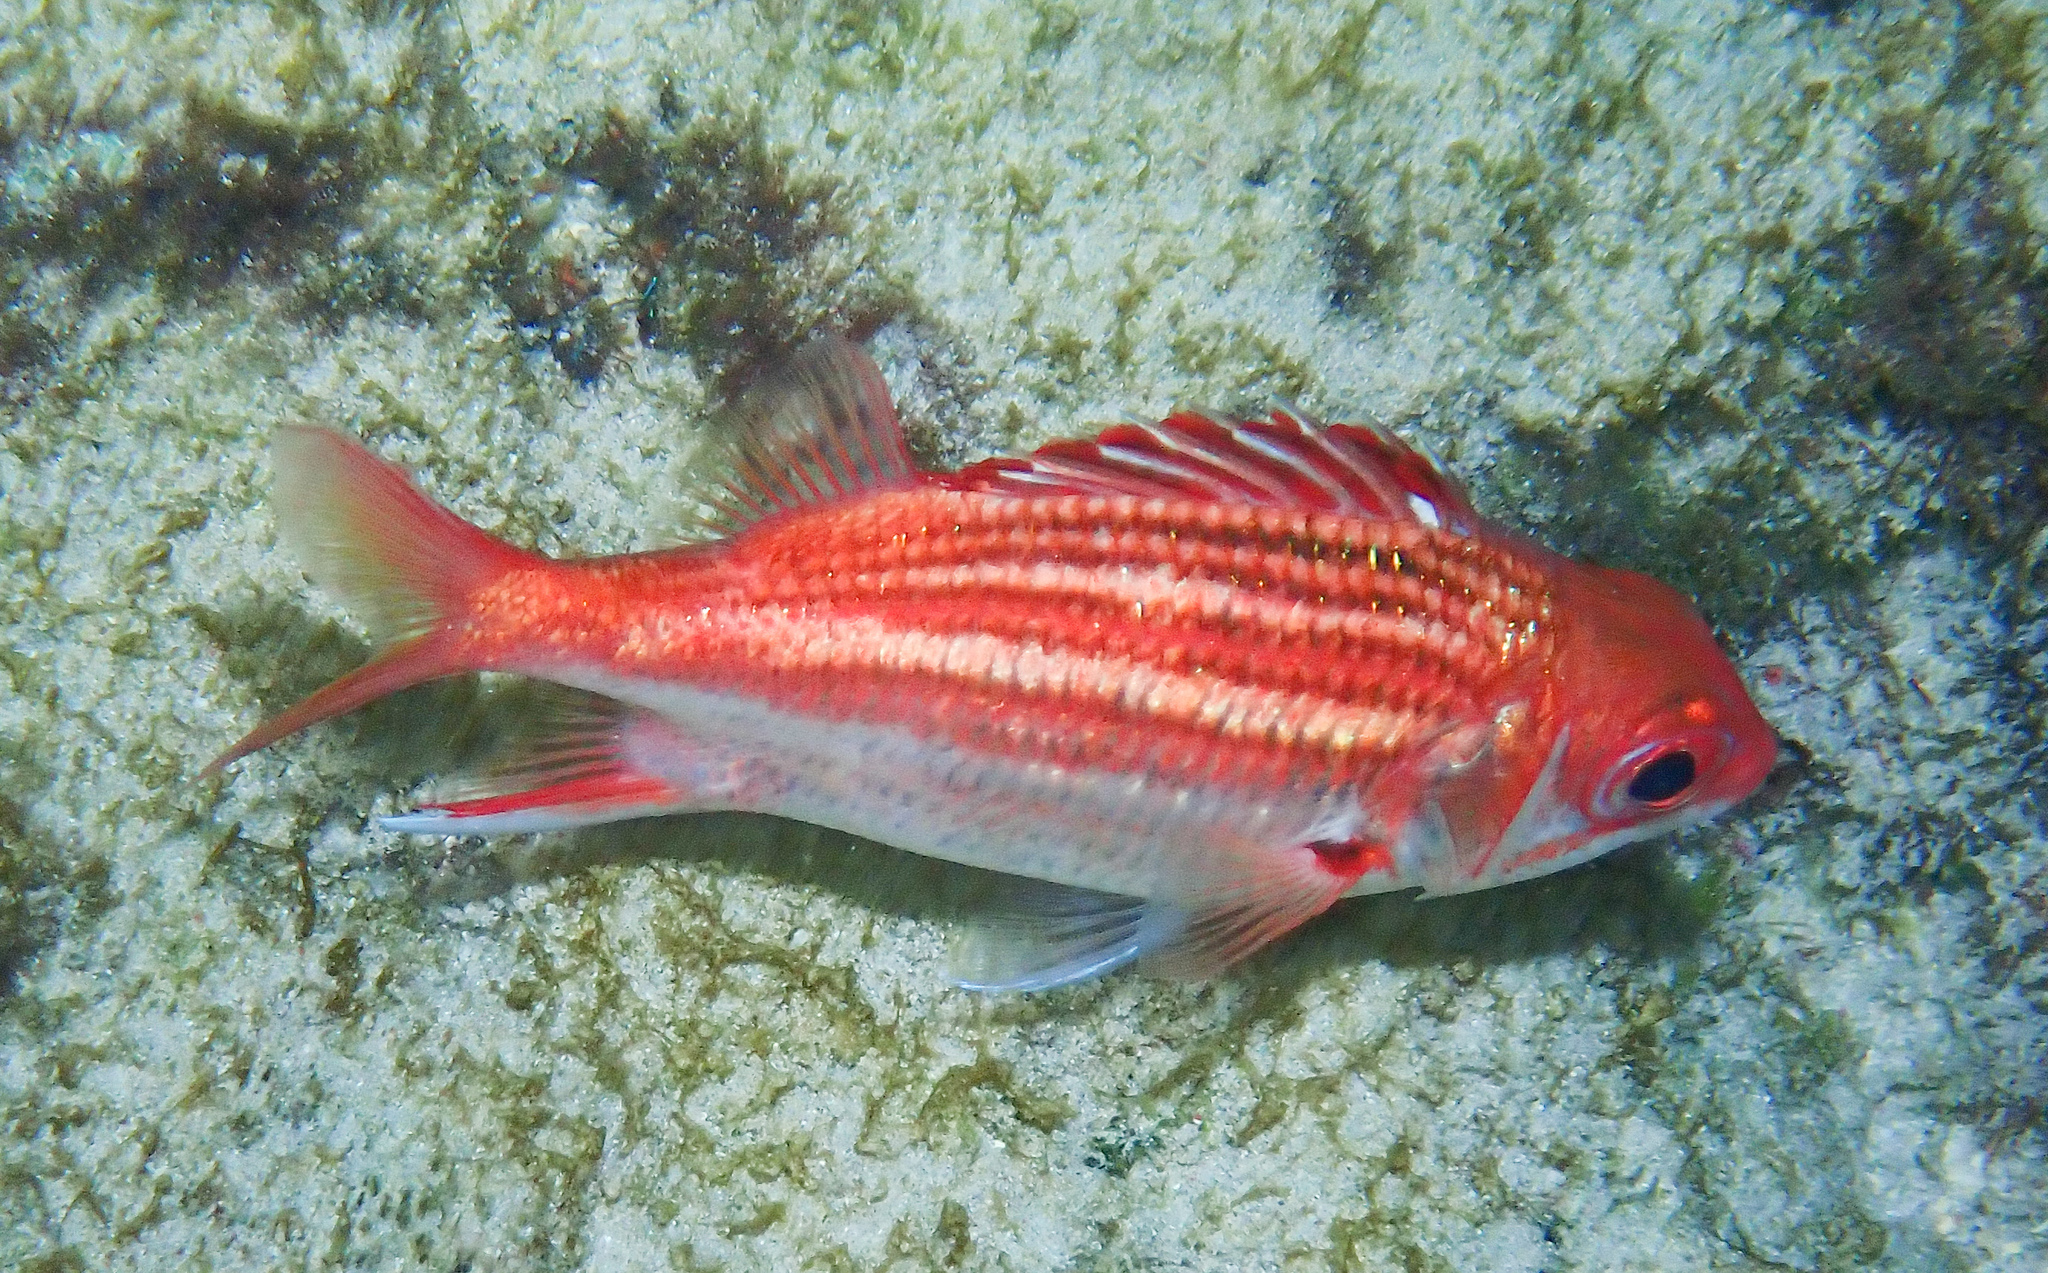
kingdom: Animalia
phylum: Chordata
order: Beryciformes
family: Holocentridae
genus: Neoniphon
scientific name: Neoniphon vexillarium
